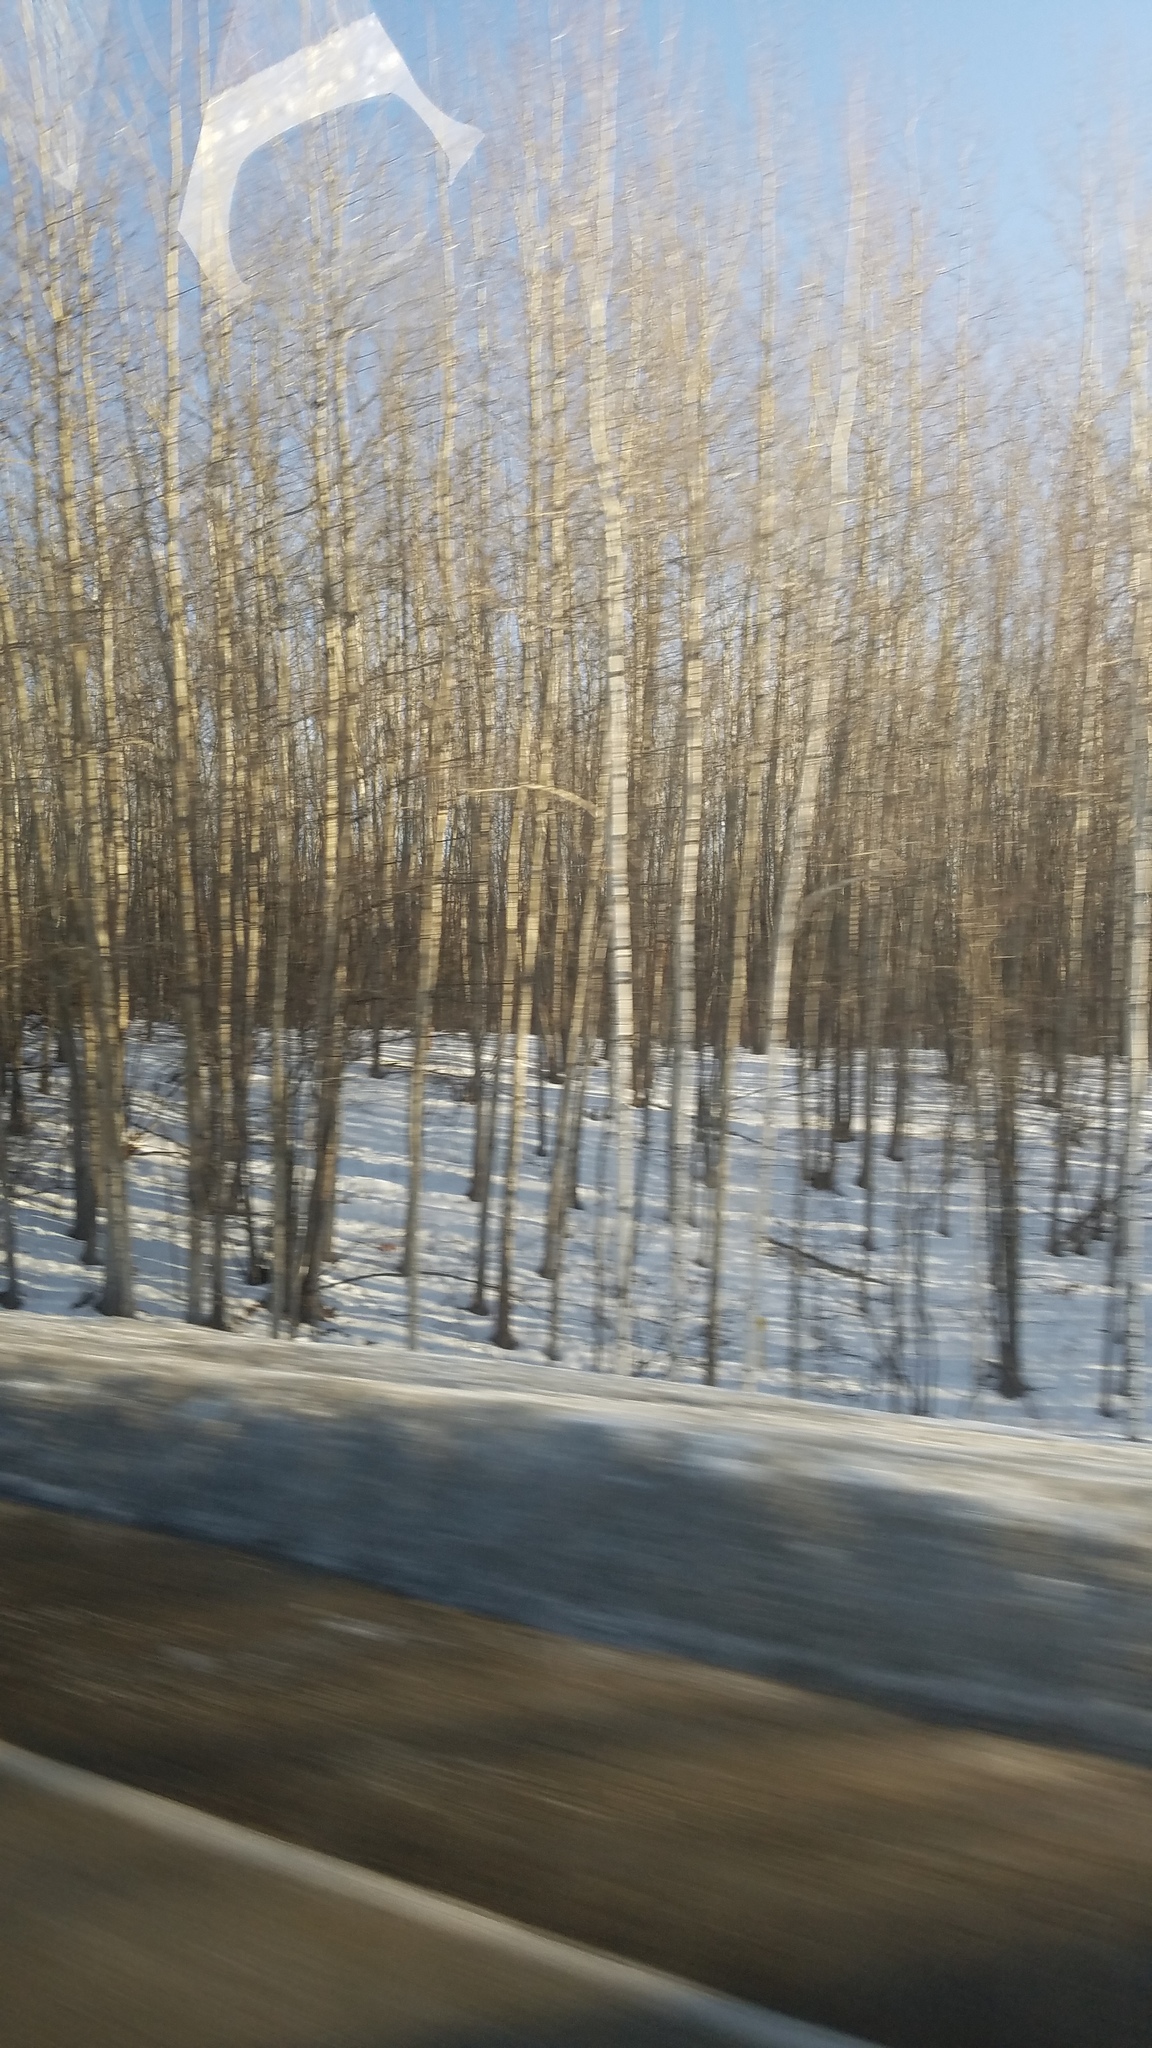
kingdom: Plantae
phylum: Tracheophyta
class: Magnoliopsida
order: Malpighiales
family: Salicaceae
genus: Populus
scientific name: Populus tremuloides
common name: Quaking aspen
